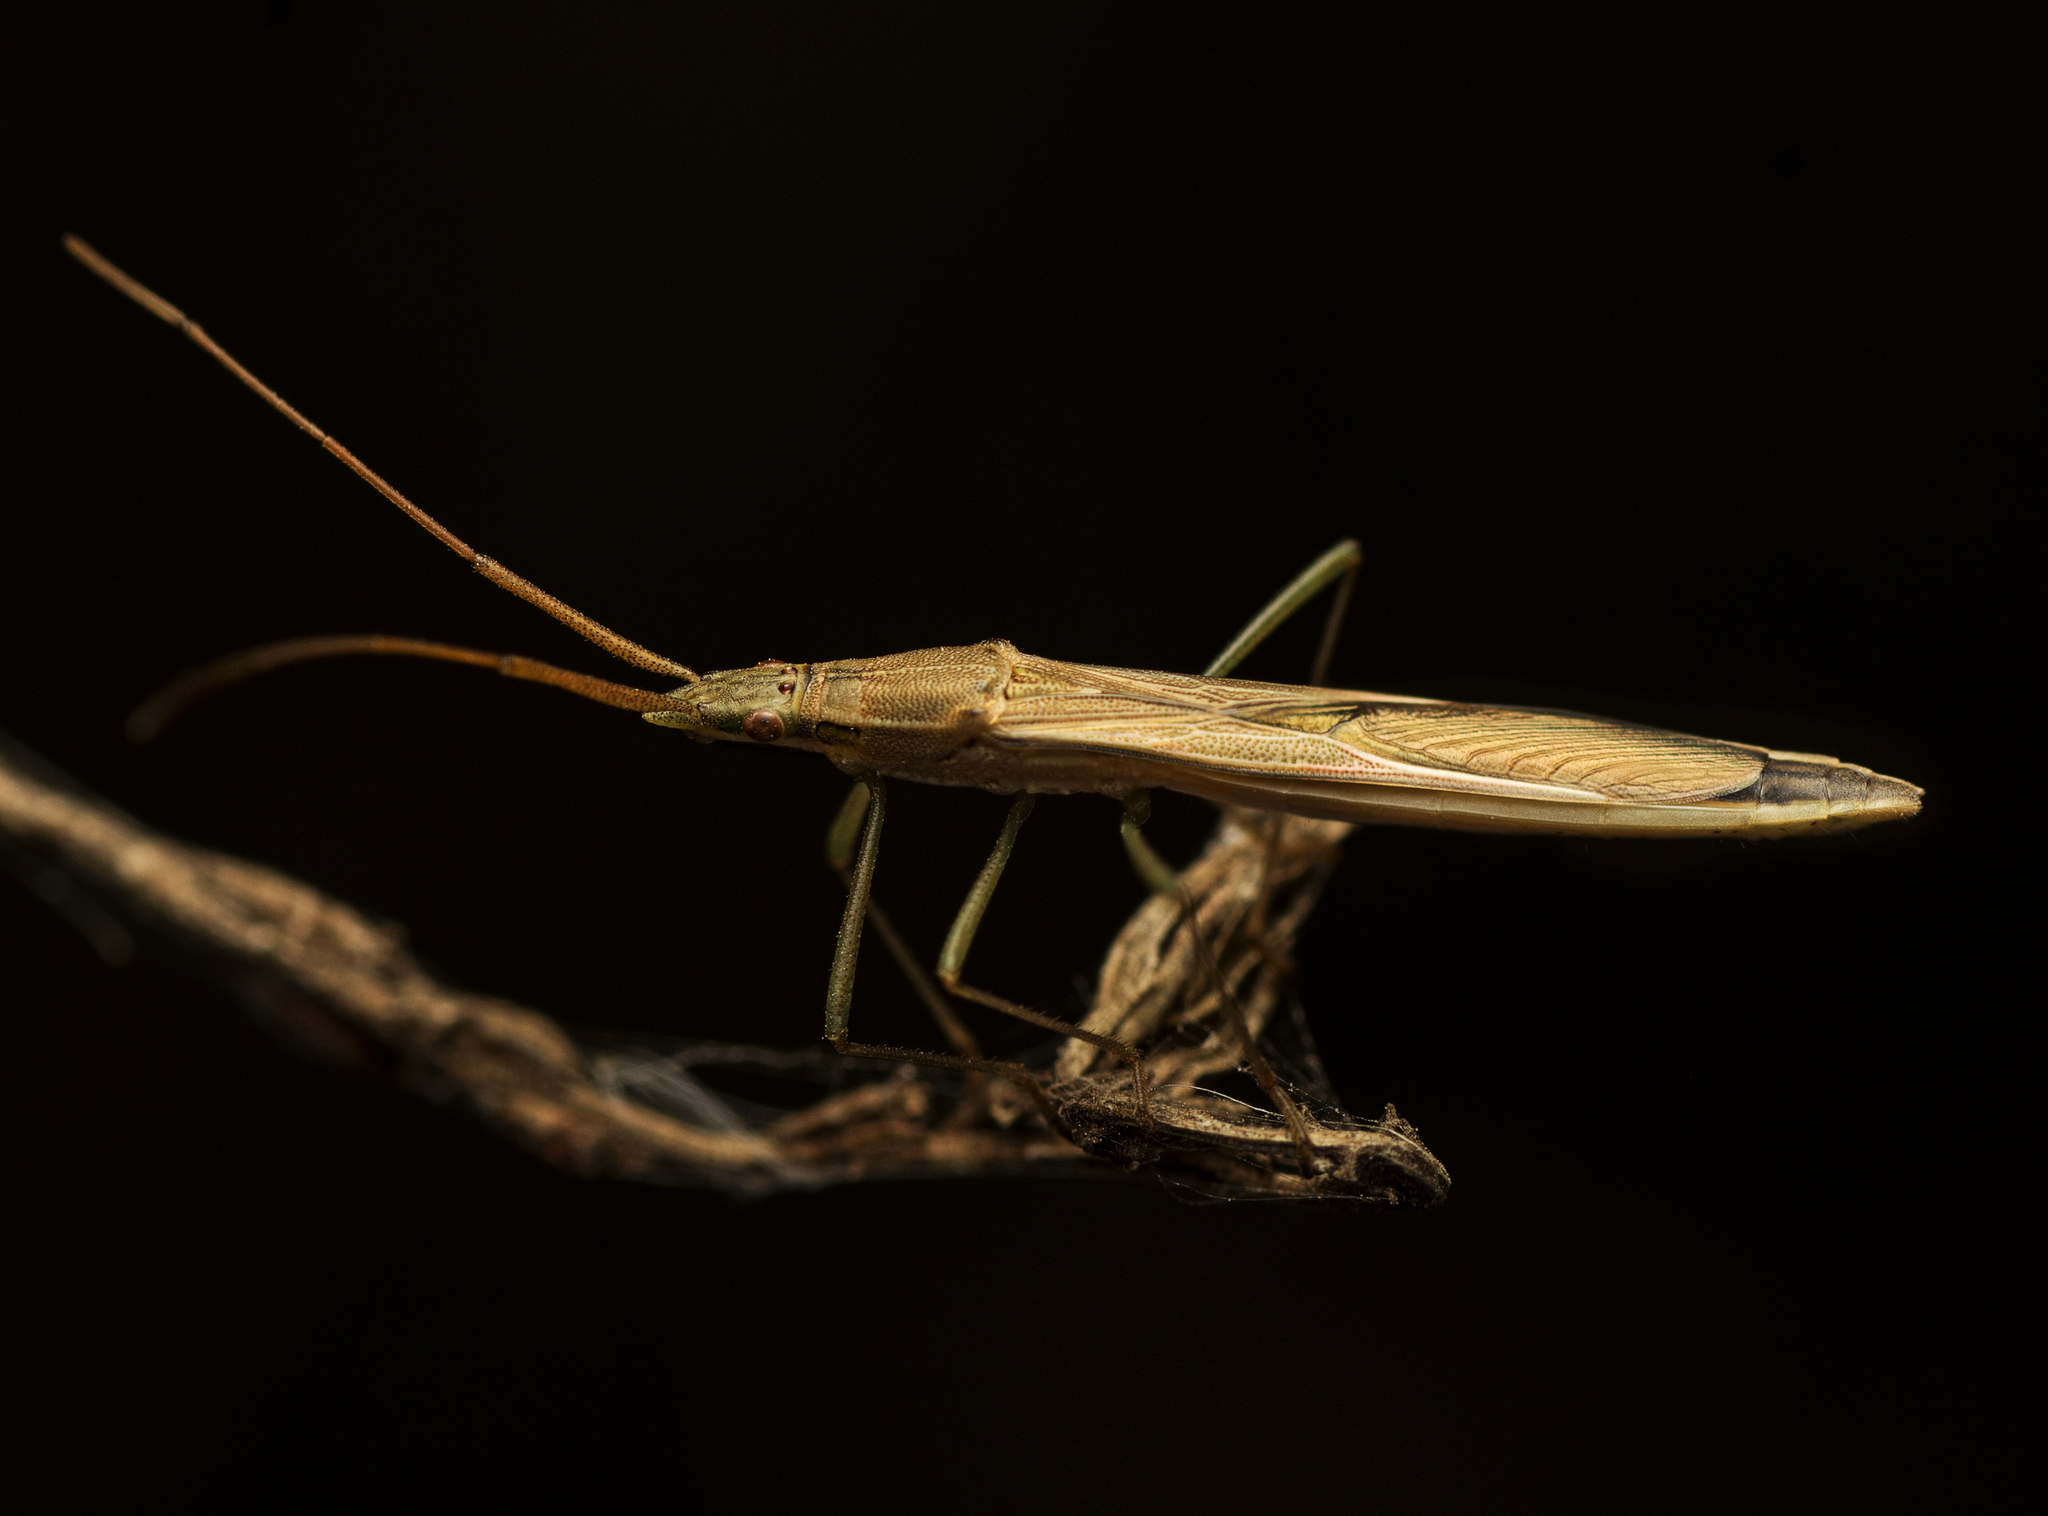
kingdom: Animalia
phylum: Arthropoda
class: Insecta
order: Hemiptera
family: Alydidae
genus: Mutusca
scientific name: Mutusca brevicornis
